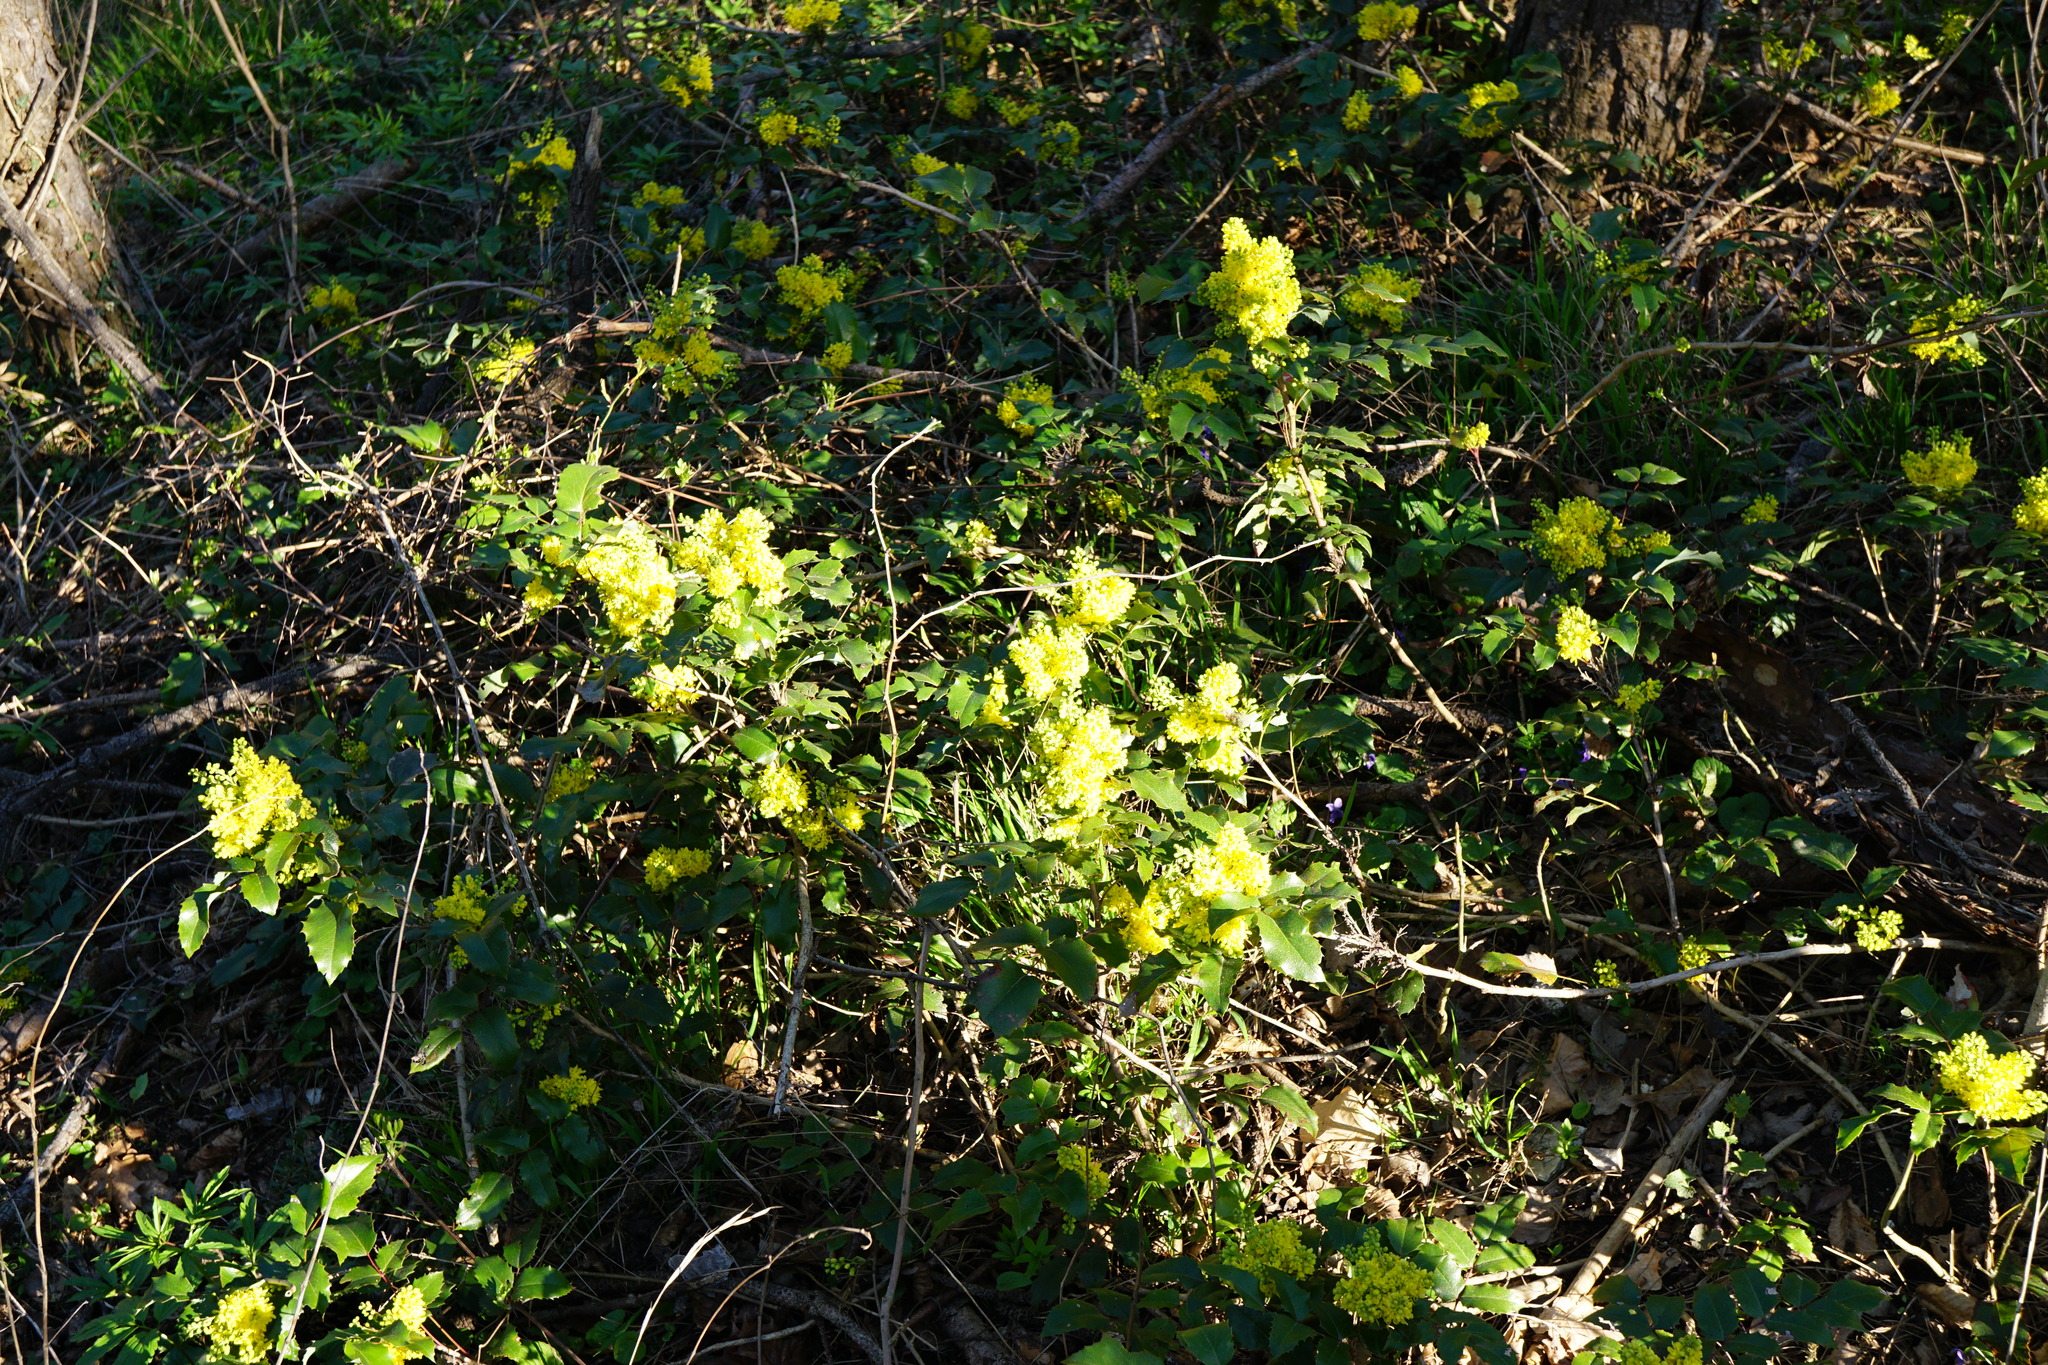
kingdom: Plantae
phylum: Tracheophyta
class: Magnoliopsida
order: Ranunculales
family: Berberidaceae
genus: Mahonia
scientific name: Mahonia aquifolium
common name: Oregon-grape
